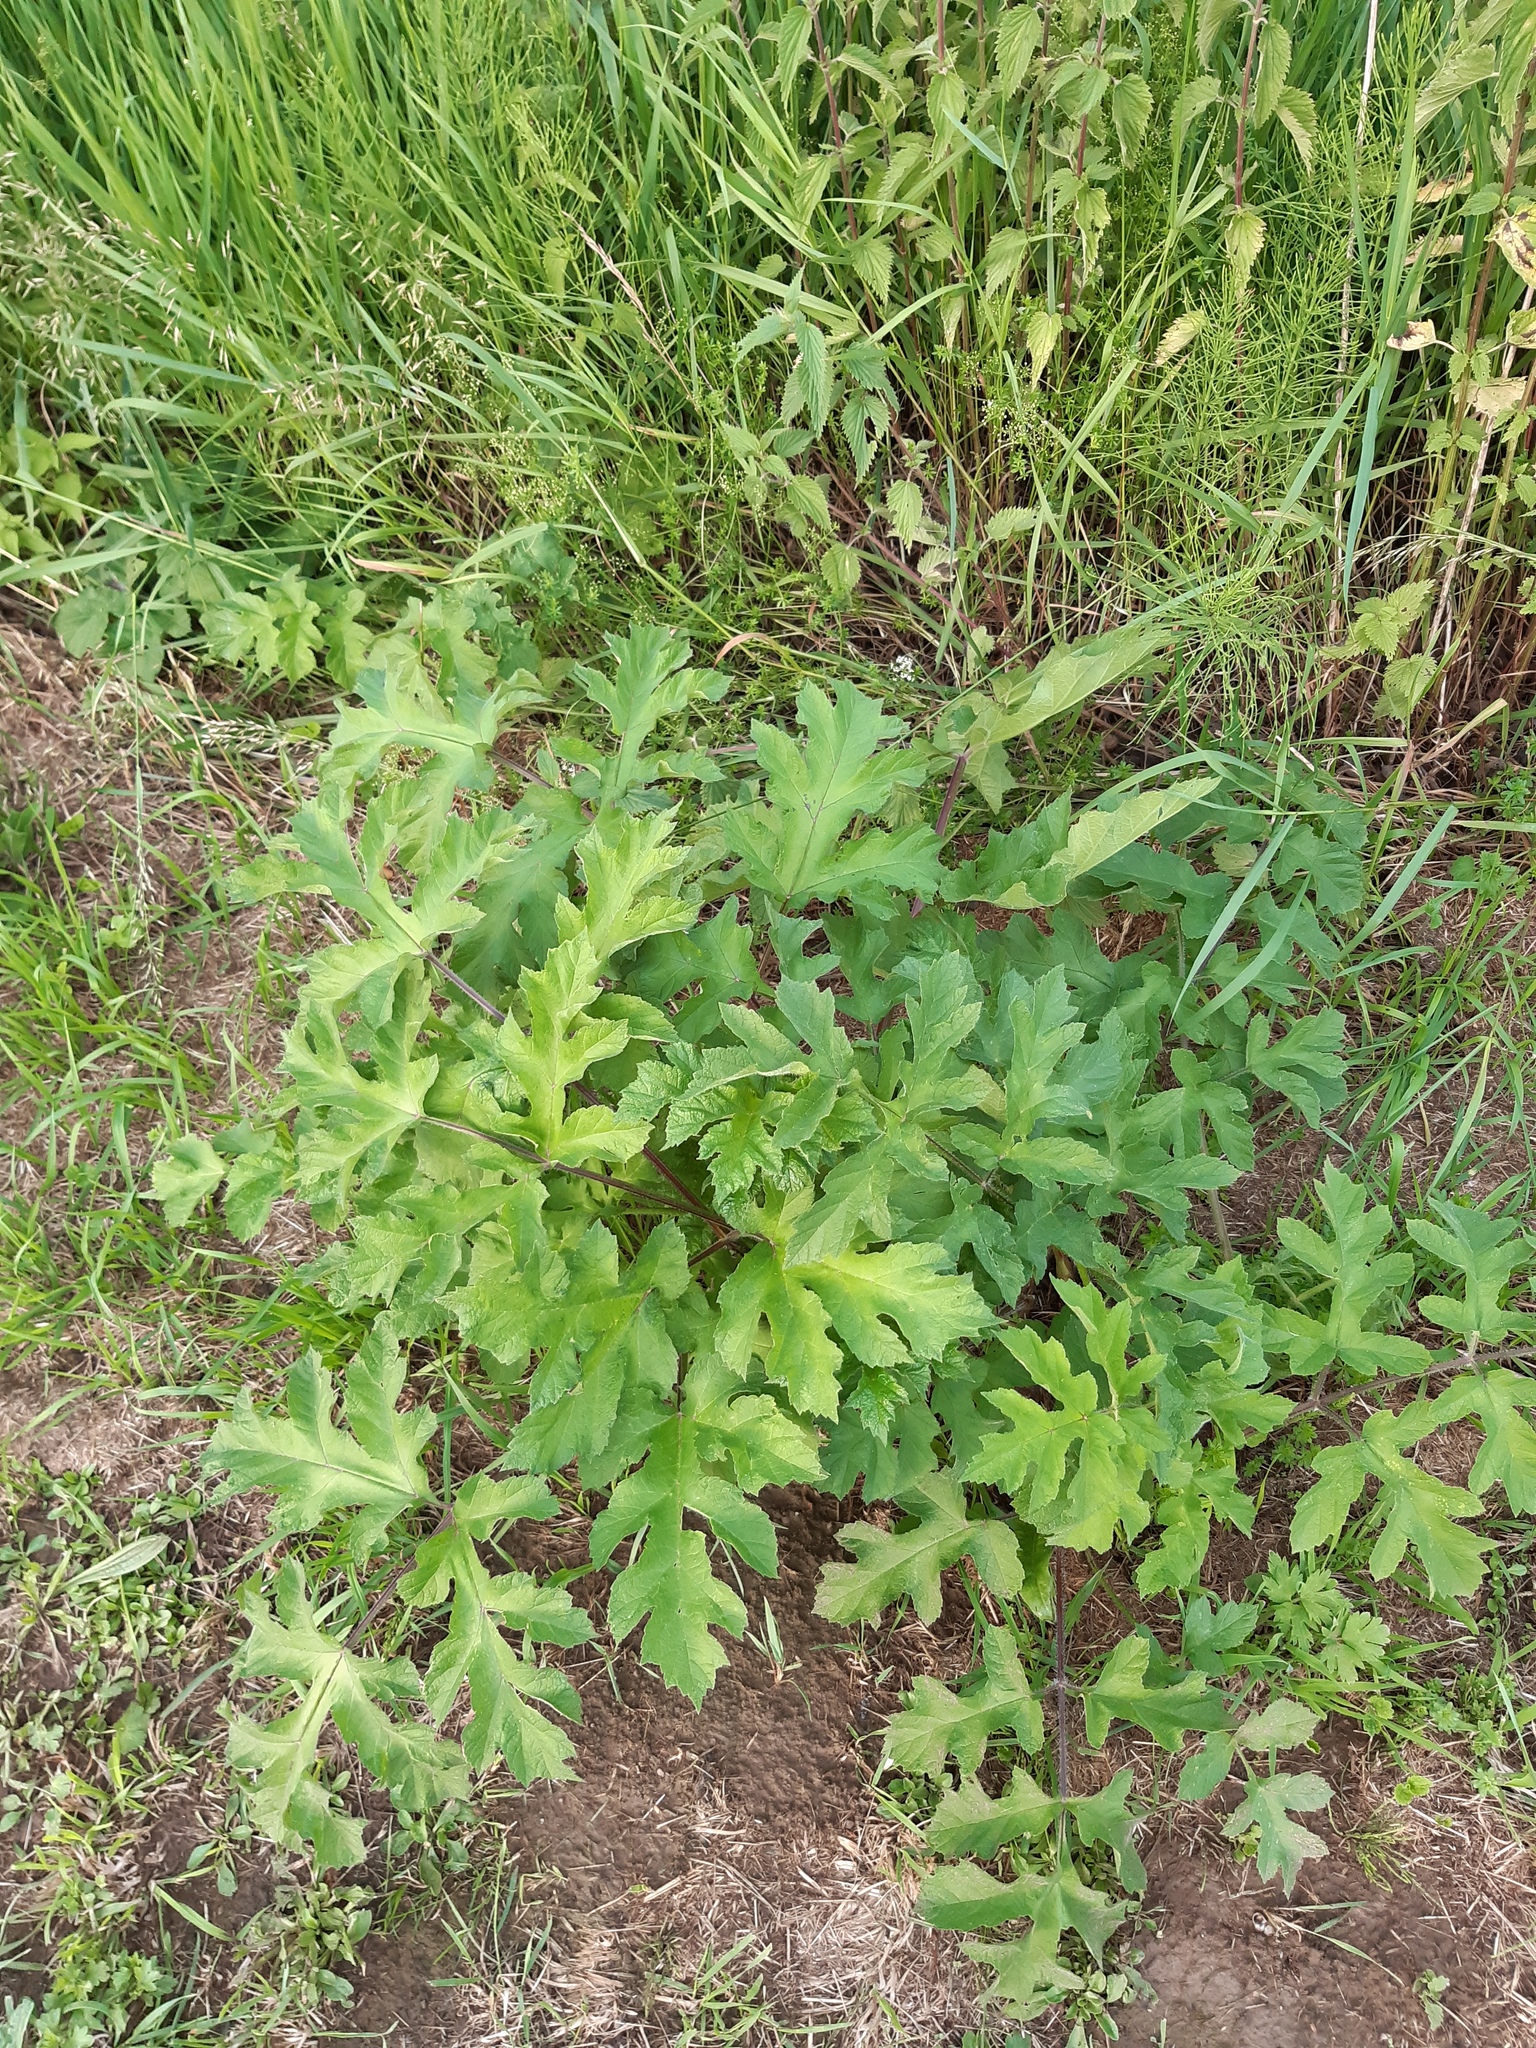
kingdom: Plantae
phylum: Tracheophyta
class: Magnoliopsida
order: Apiales
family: Apiaceae
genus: Heracleum
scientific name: Heracleum sphondylium
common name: Hogweed
